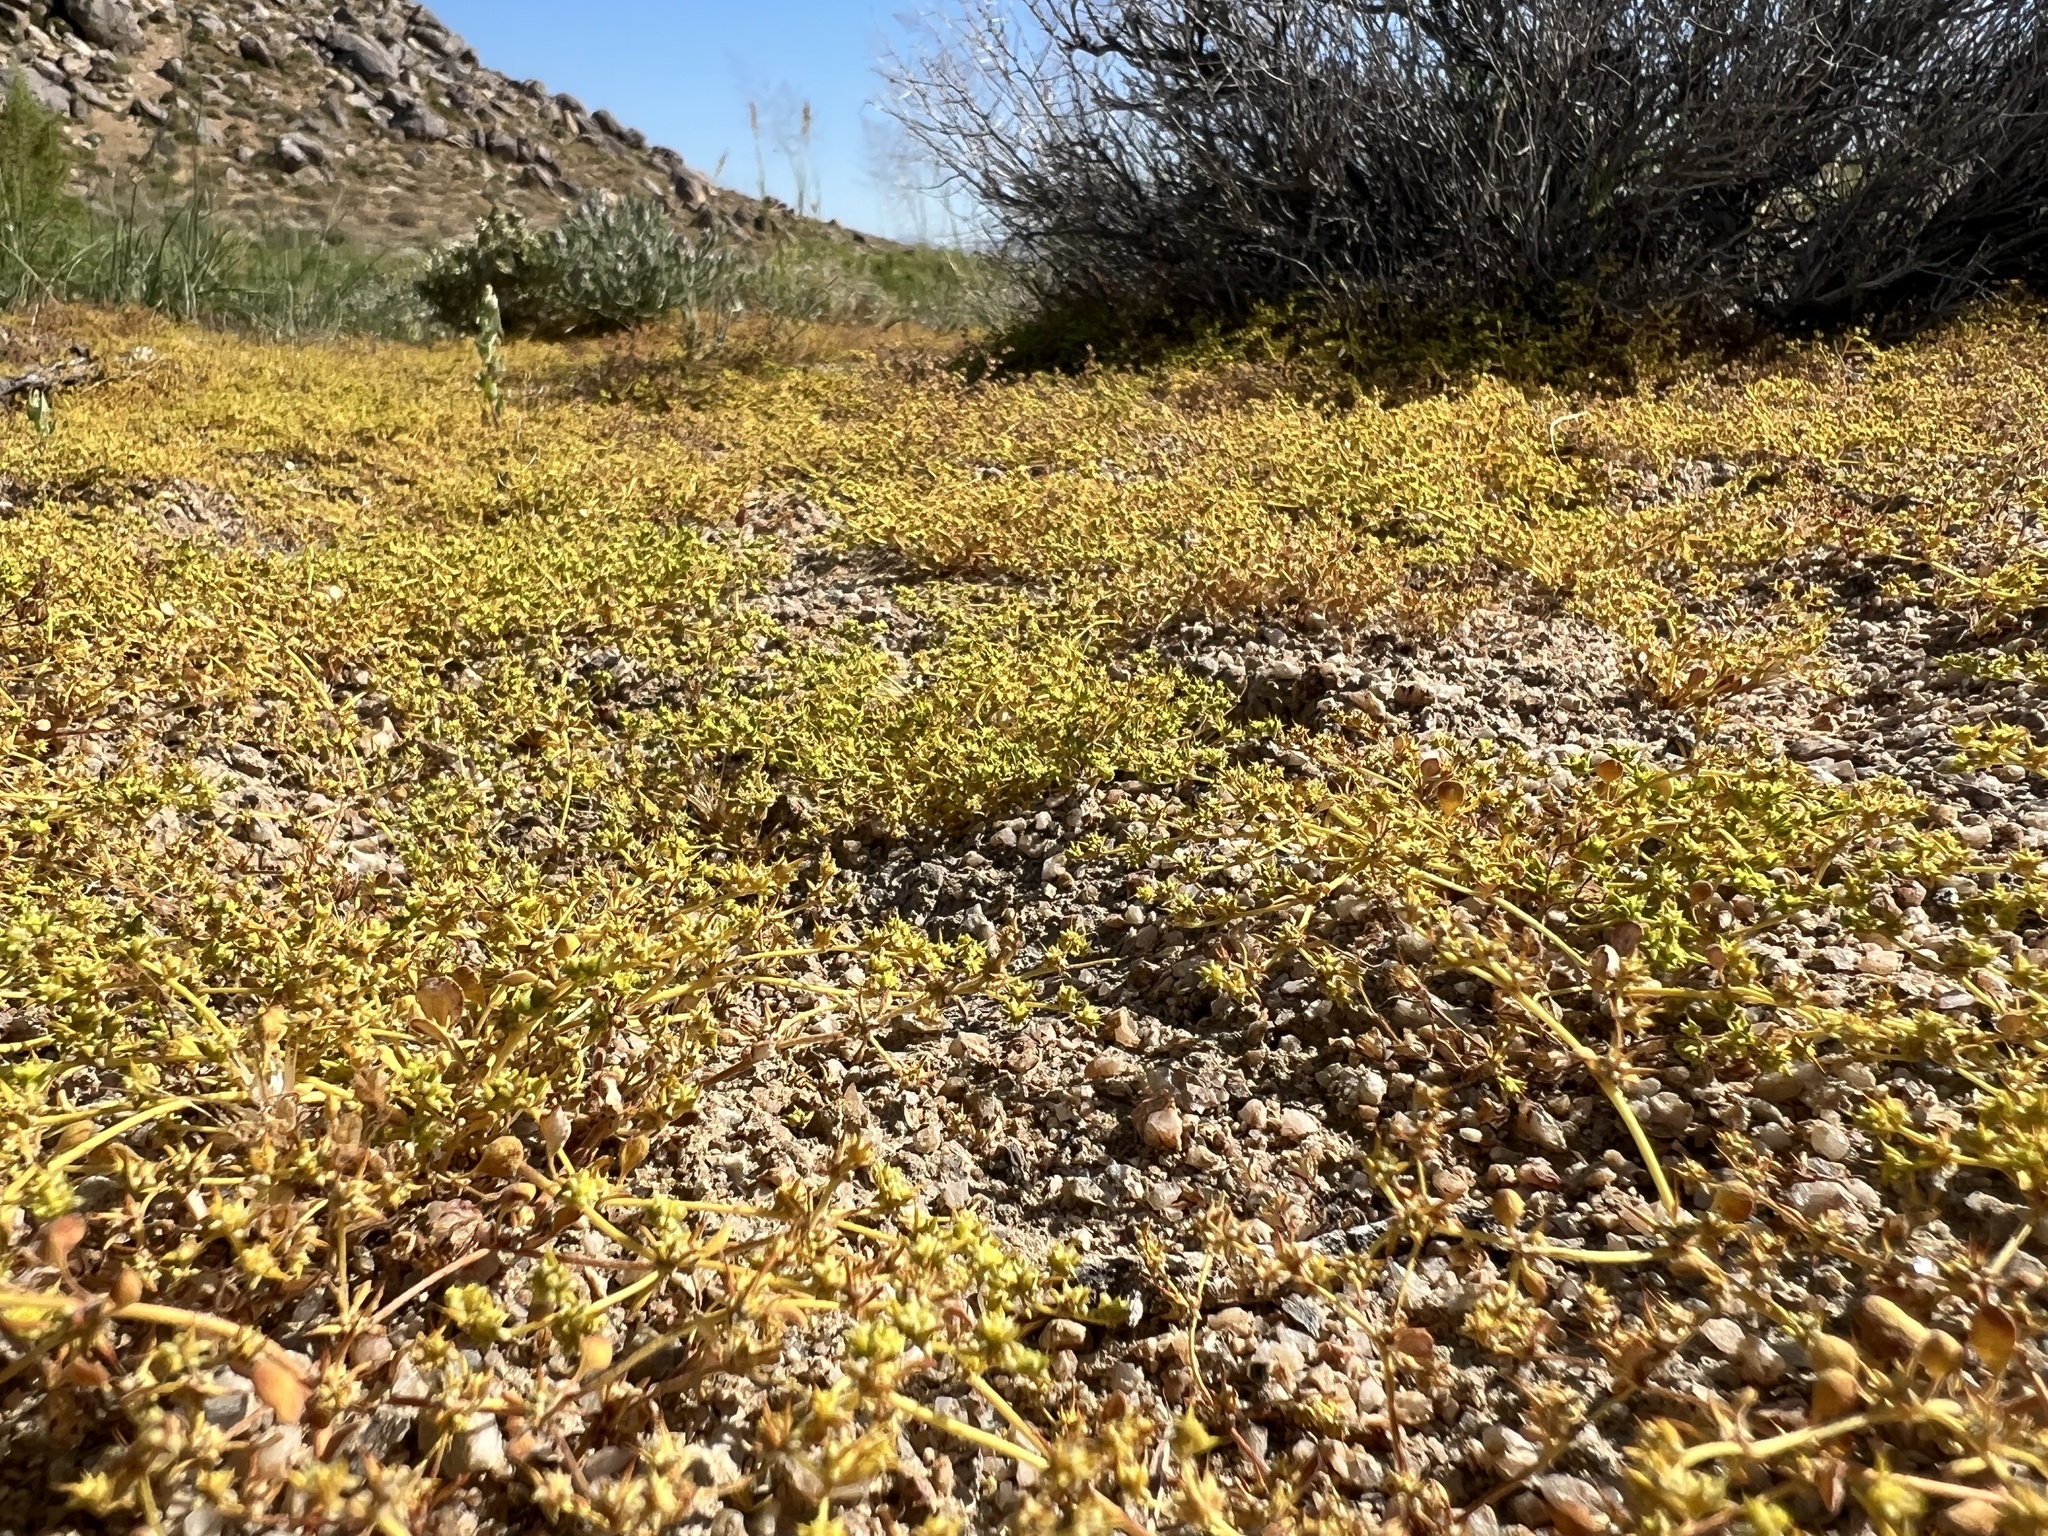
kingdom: Plantae
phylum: Tracheophyta
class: Magnoliopsida
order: Caryophyllales
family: Polygonaceae
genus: Goodmania
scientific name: Goodmania luteola
